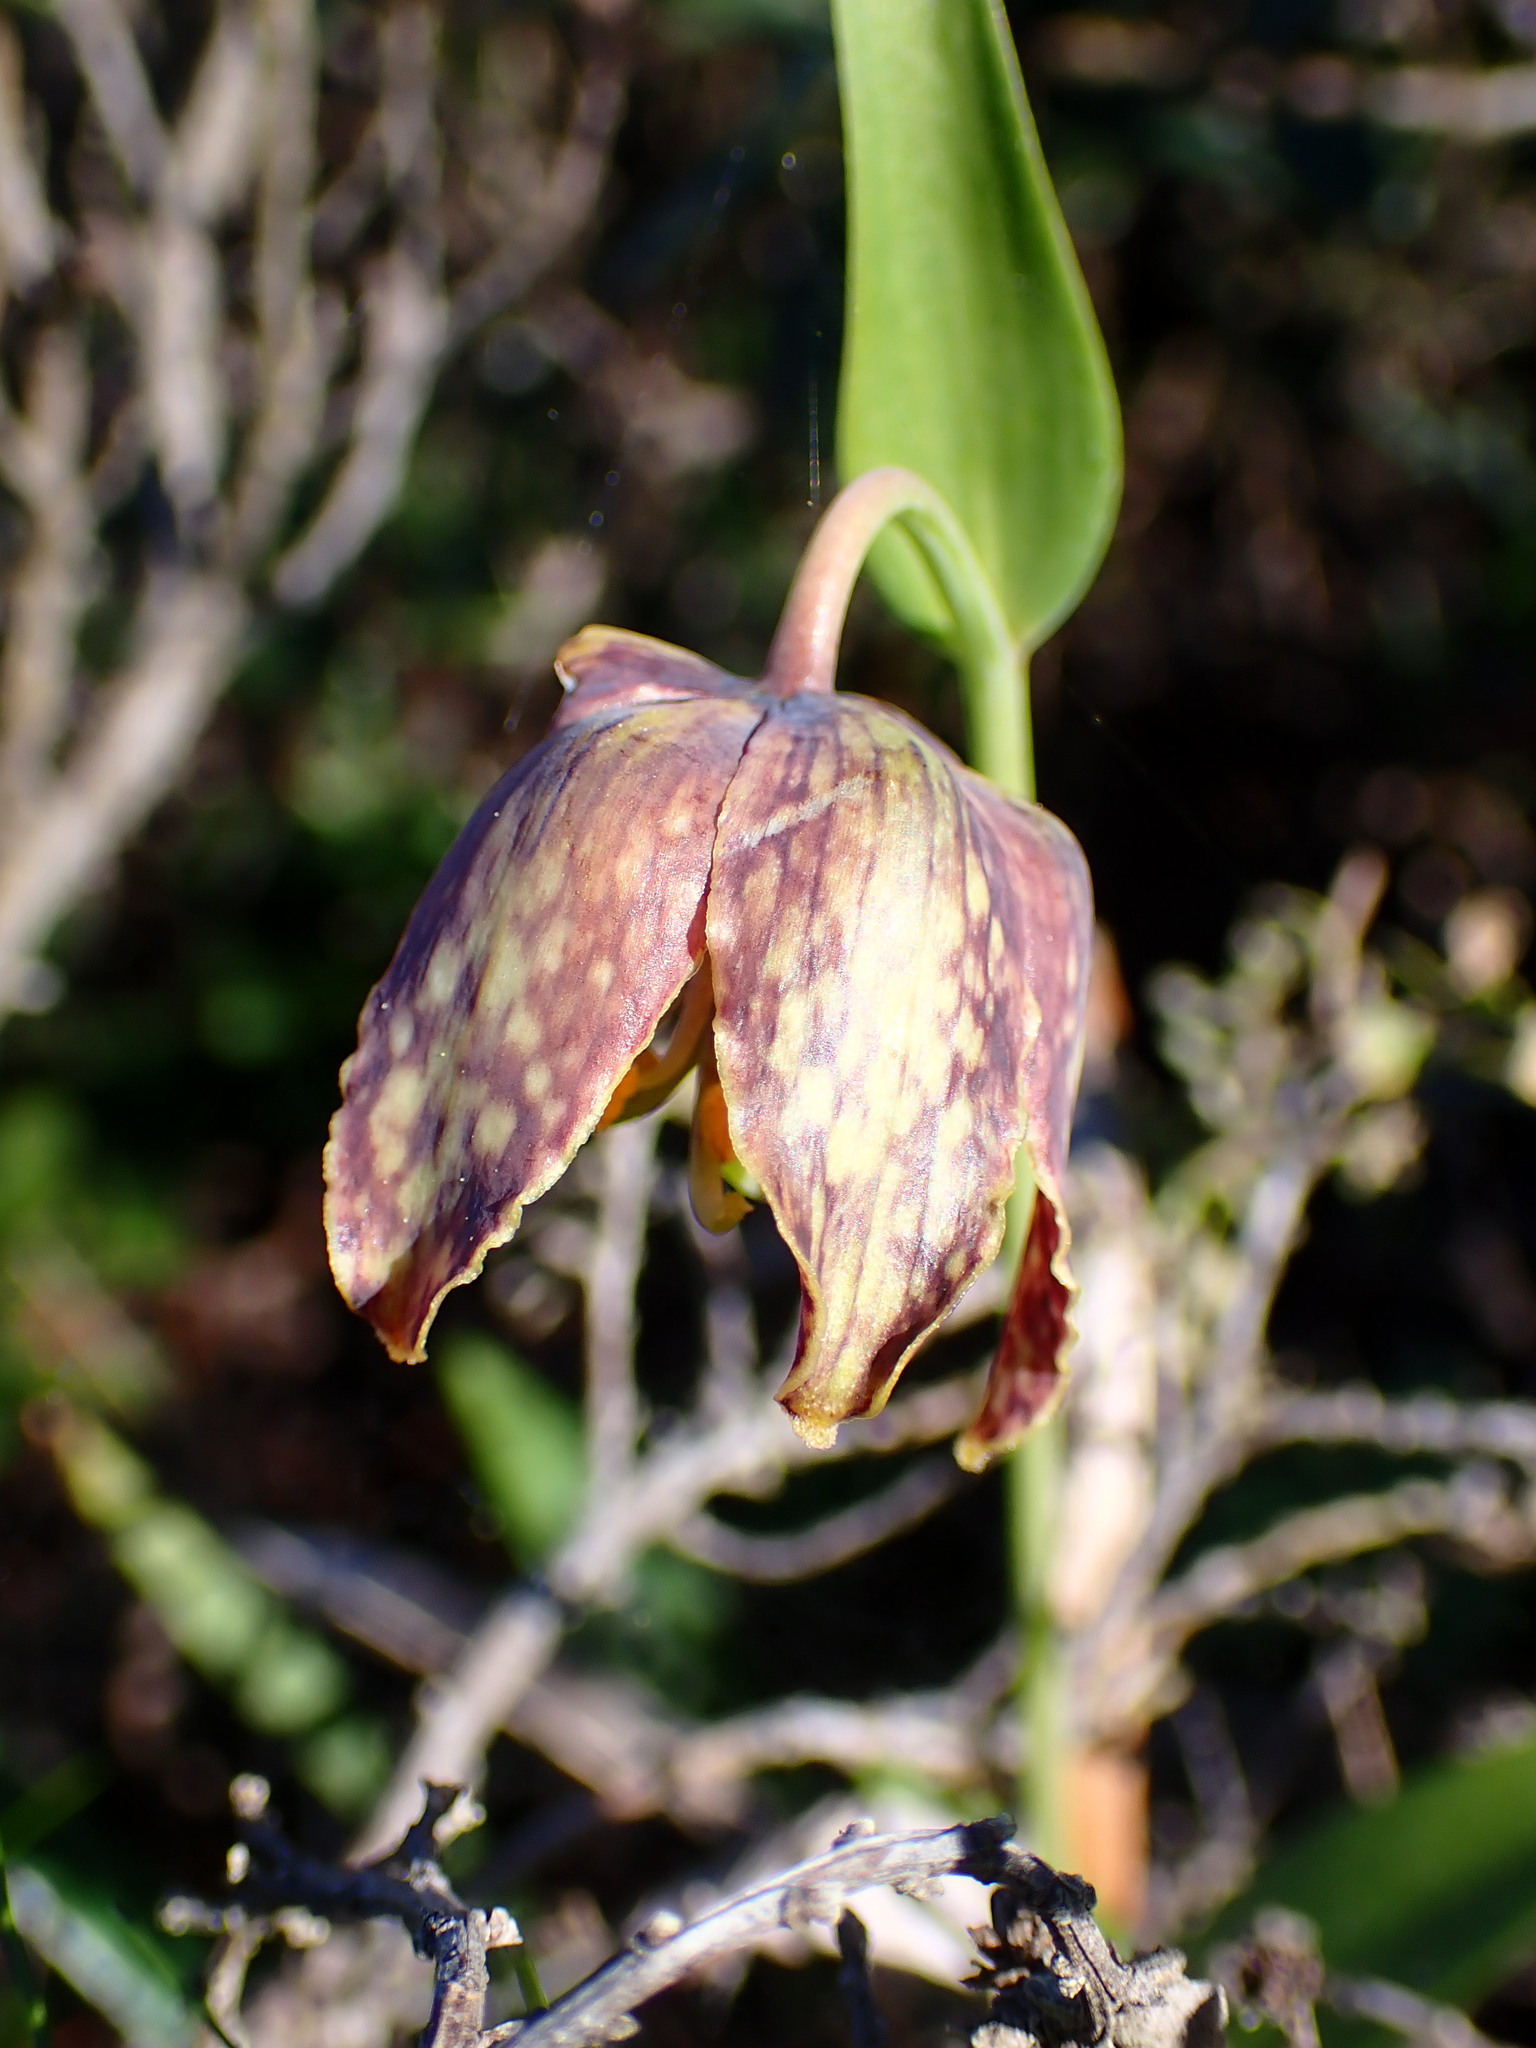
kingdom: Plantae
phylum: Tracheophyta
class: Liliopsida
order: Liliales
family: Liliaceae
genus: Fritillaria
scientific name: Fritillaria affinis
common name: Ojai fritillary
